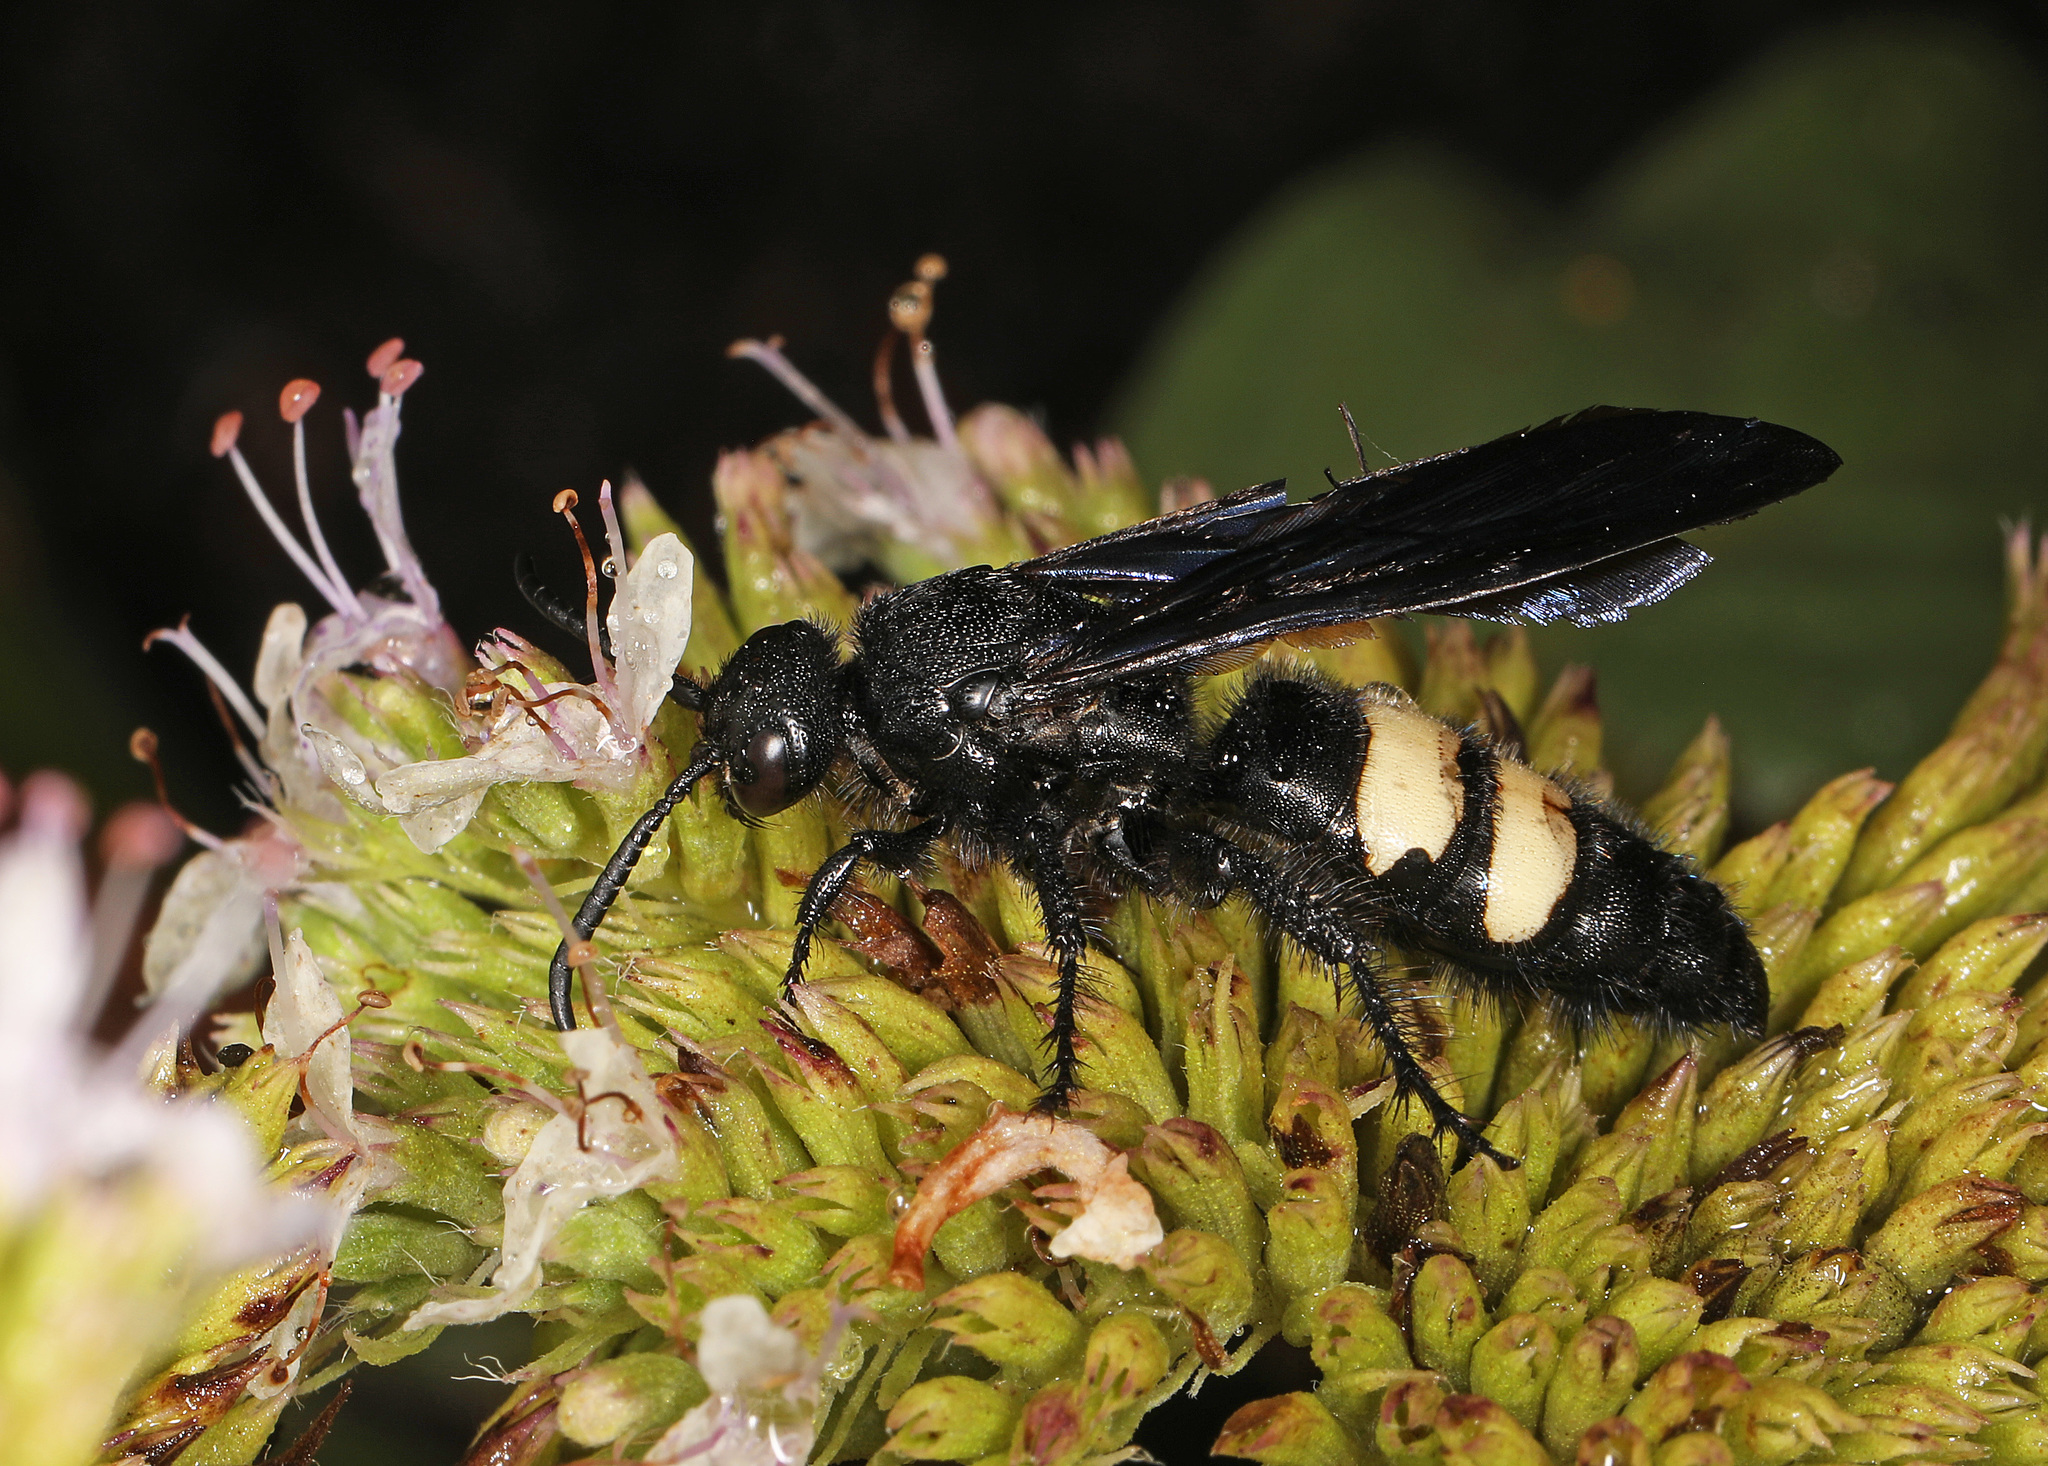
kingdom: Animalia
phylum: Arthropoda
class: Insecta
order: Hymenoptera
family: Scoliidae
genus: Scolia
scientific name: Scolia bicincta
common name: Double-banded scoliid wasp
